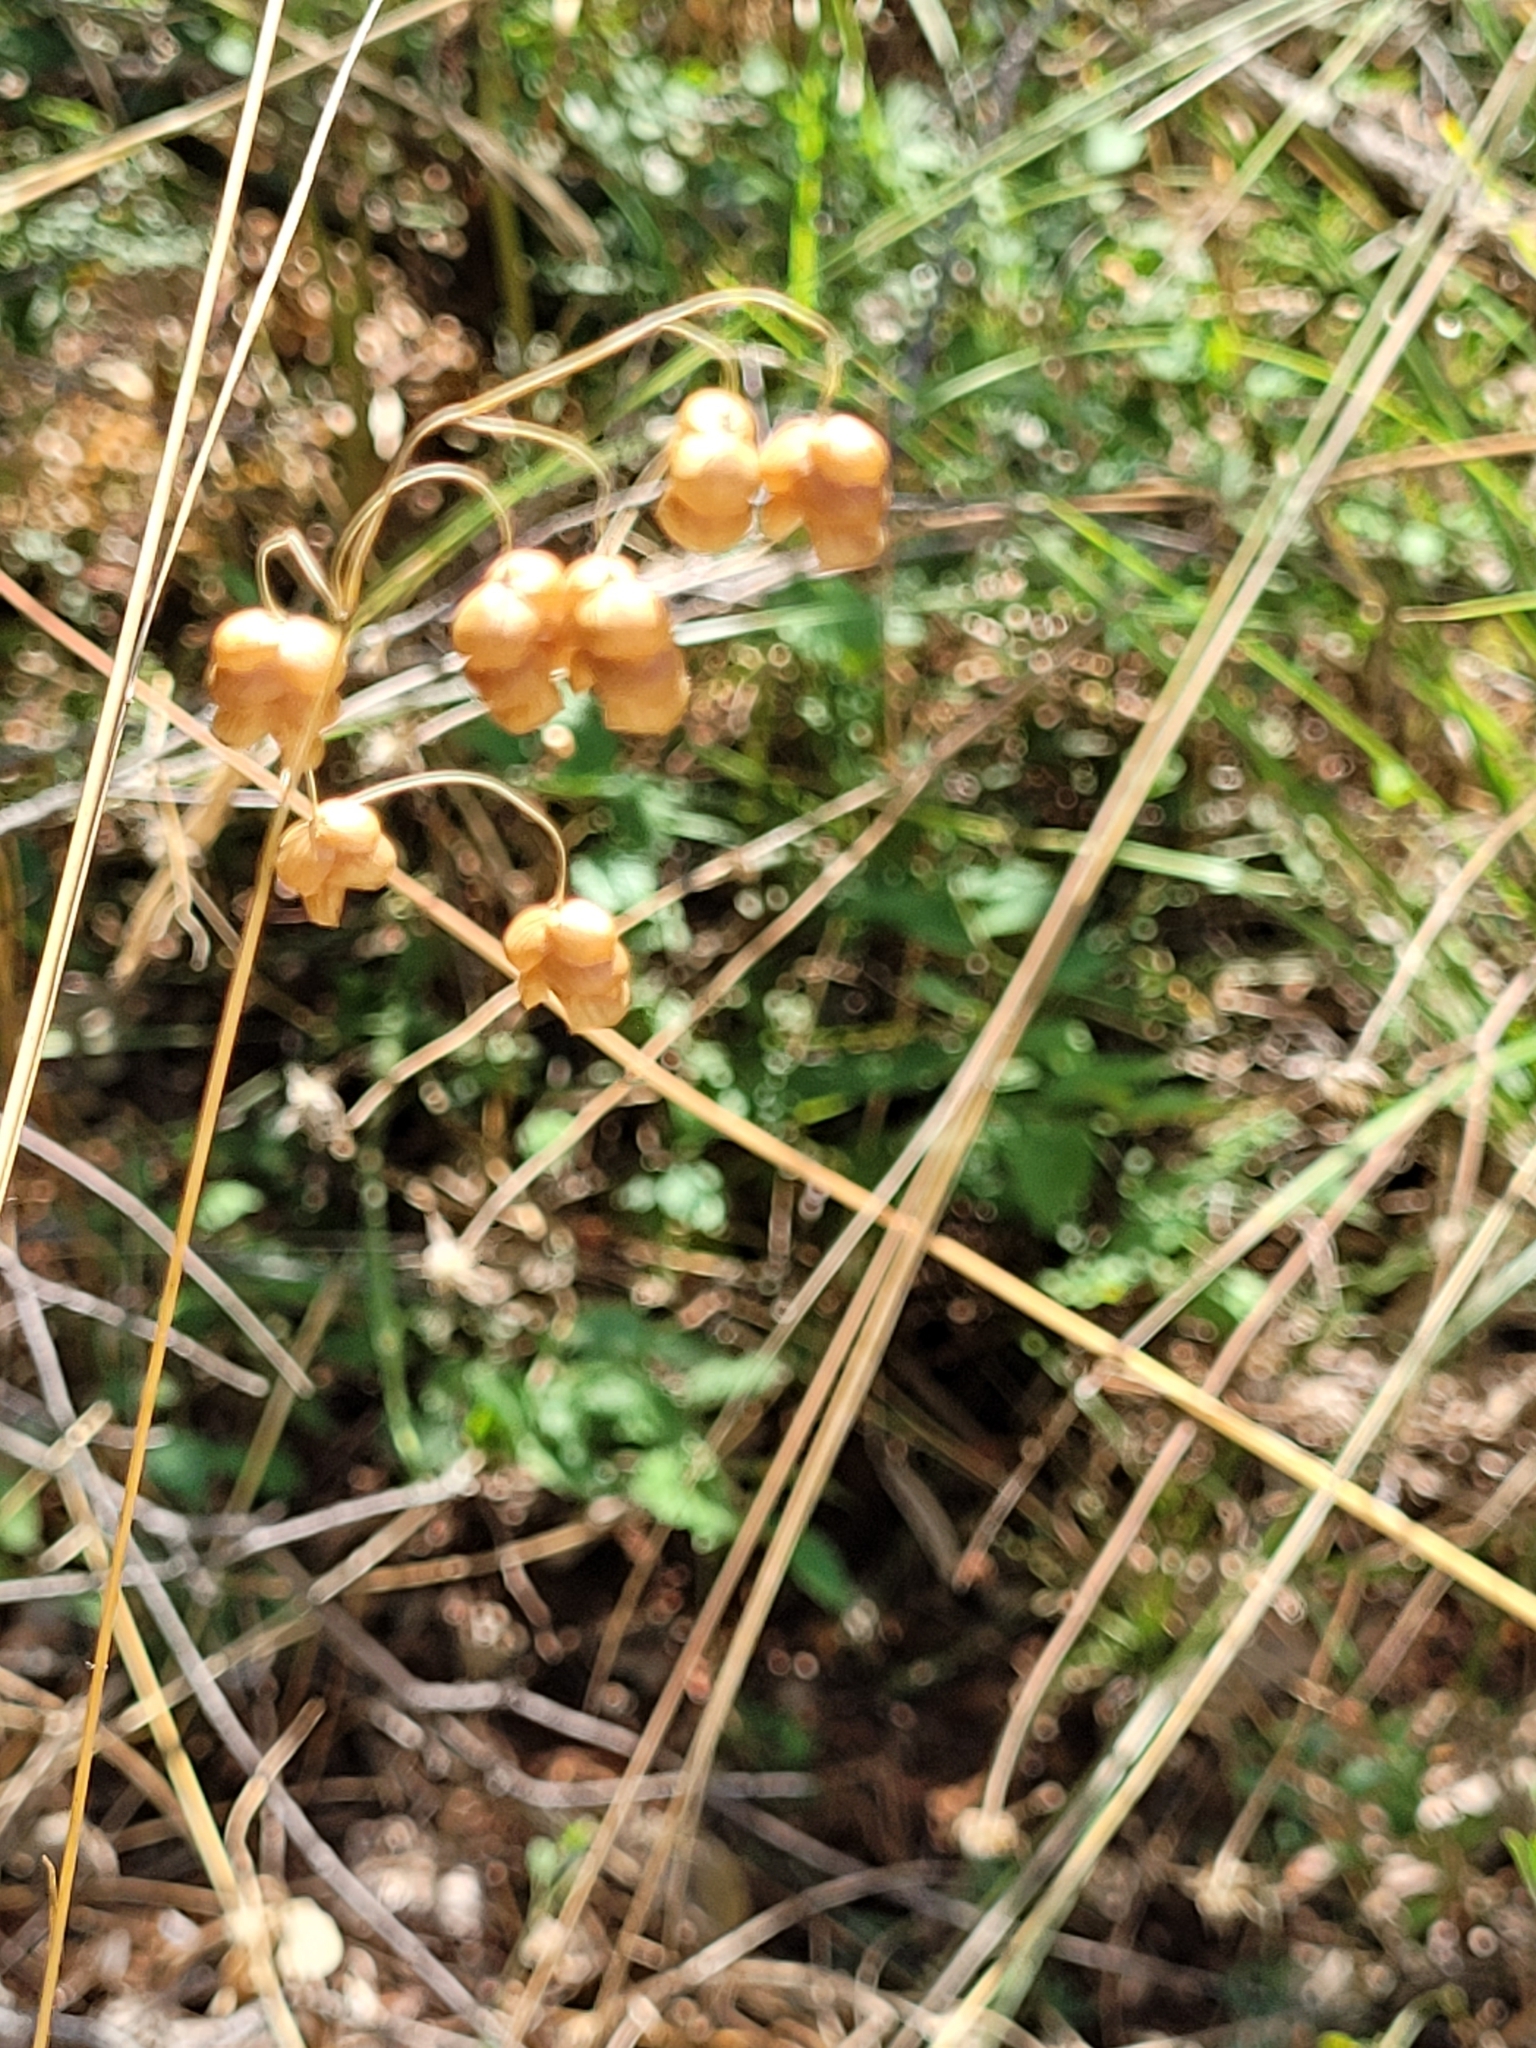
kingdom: Plantae
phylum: Tracheophyta
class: Liliopsida
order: Poales
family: Poaceae
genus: Briza
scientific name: Briza maxima
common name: Big quakinggrass
